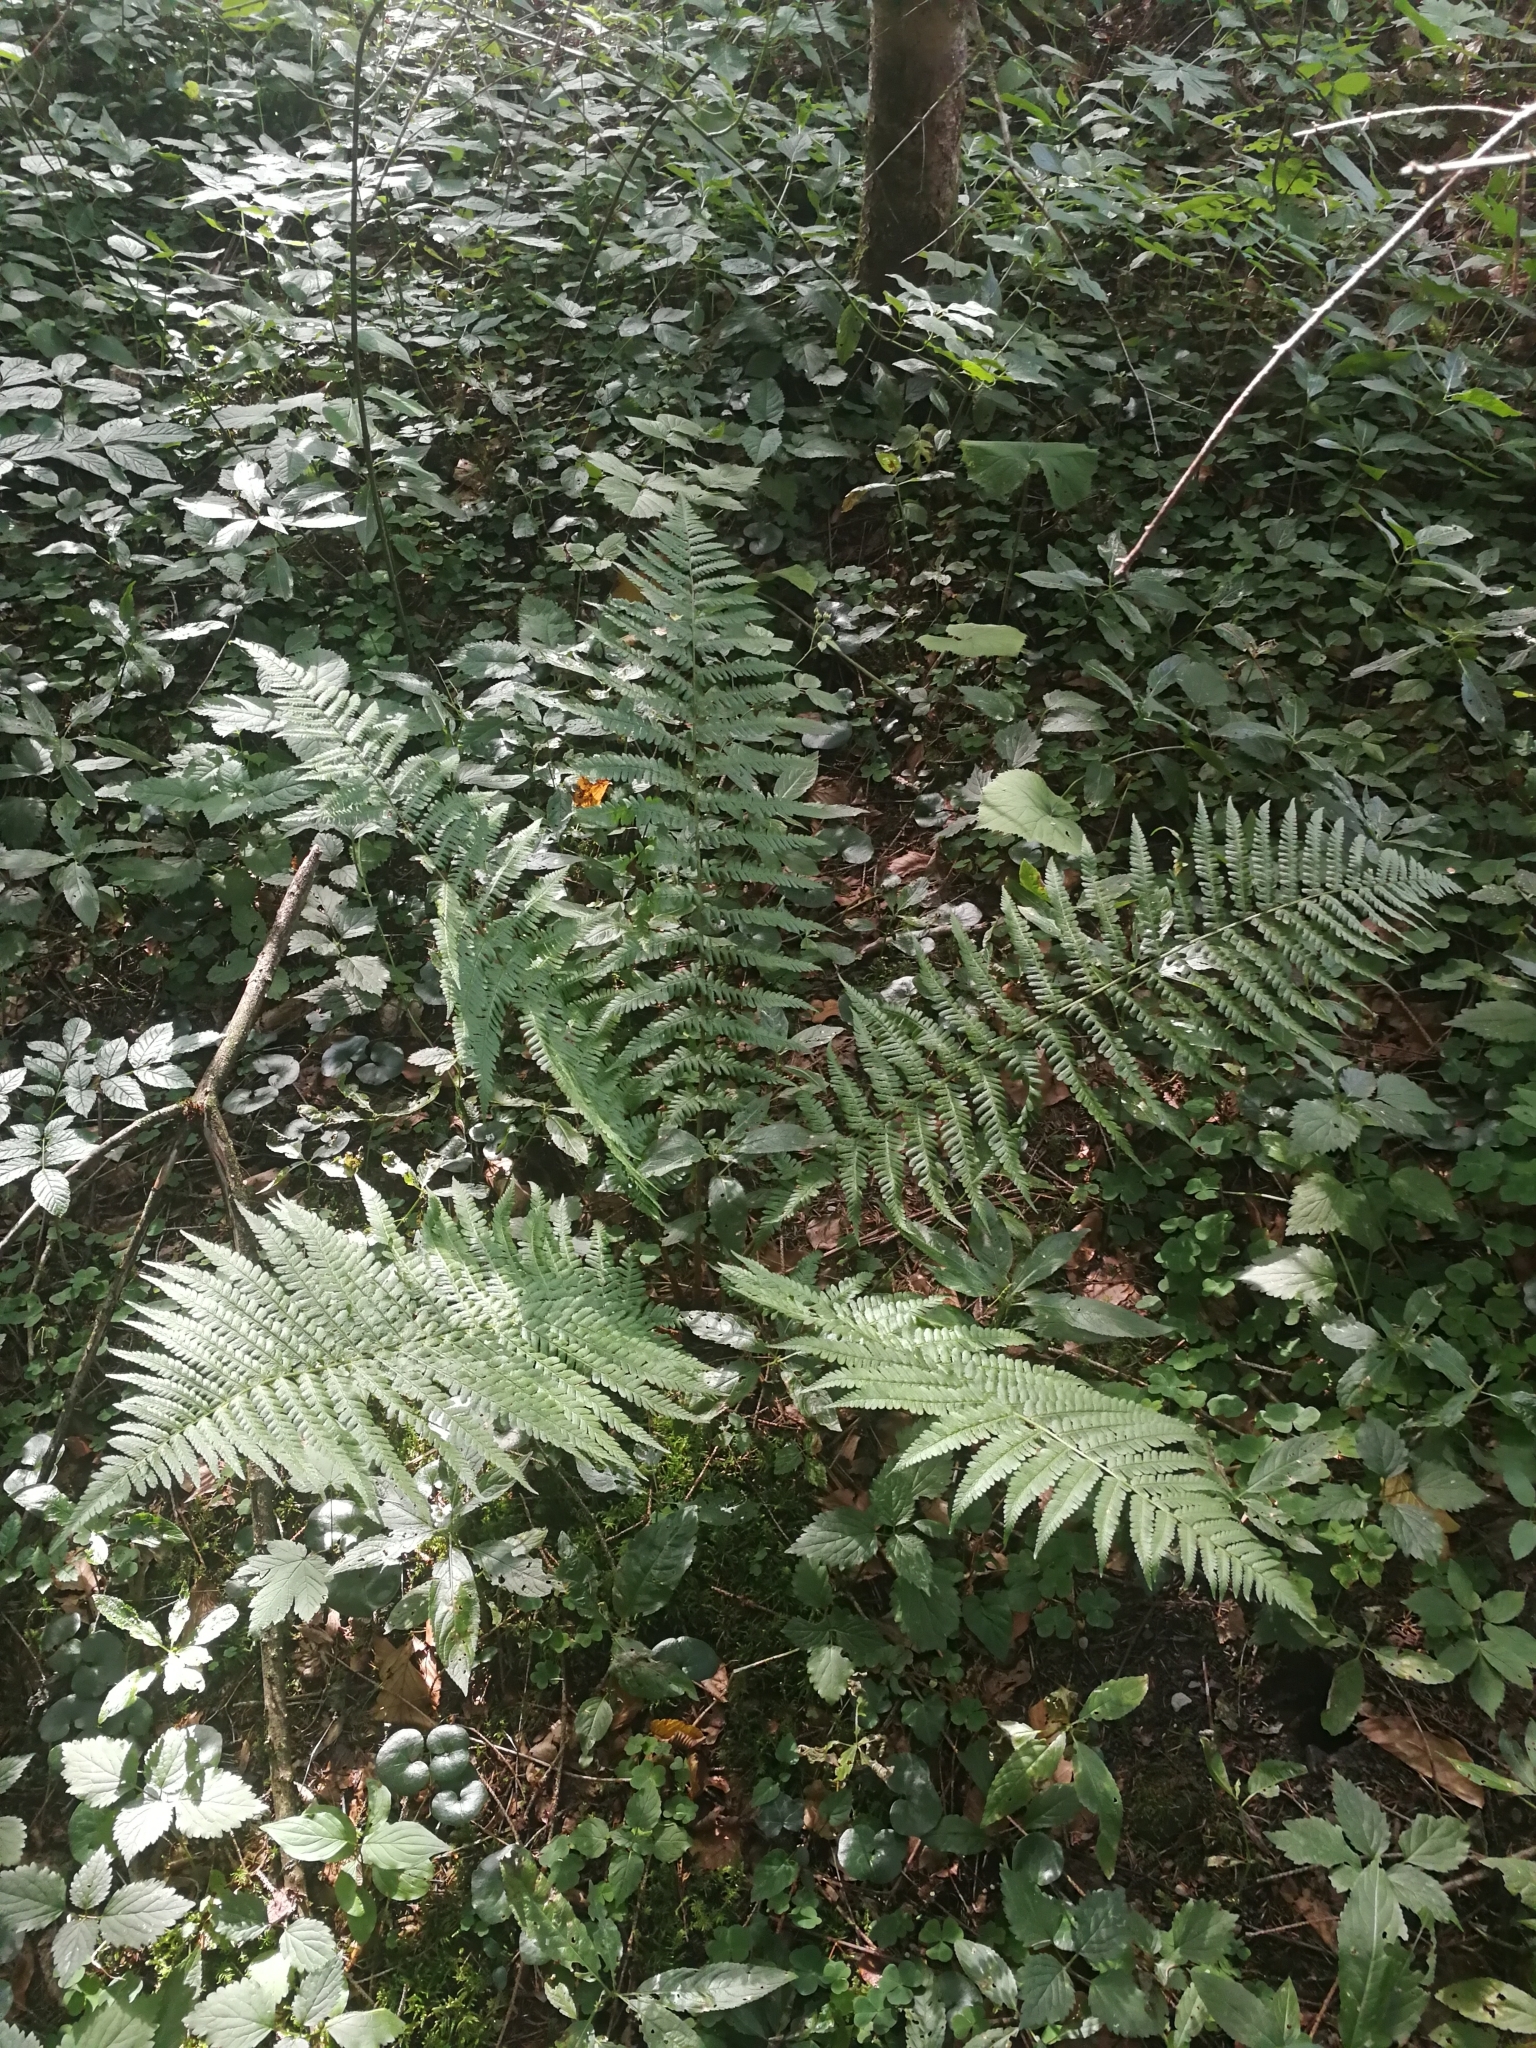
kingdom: Plantae
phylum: Tracheophyta
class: Polypodiopsida
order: Polypodiales
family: Dryopteridaceae
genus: Dryopteris
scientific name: Dryopteris filix-mas
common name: Male fern
